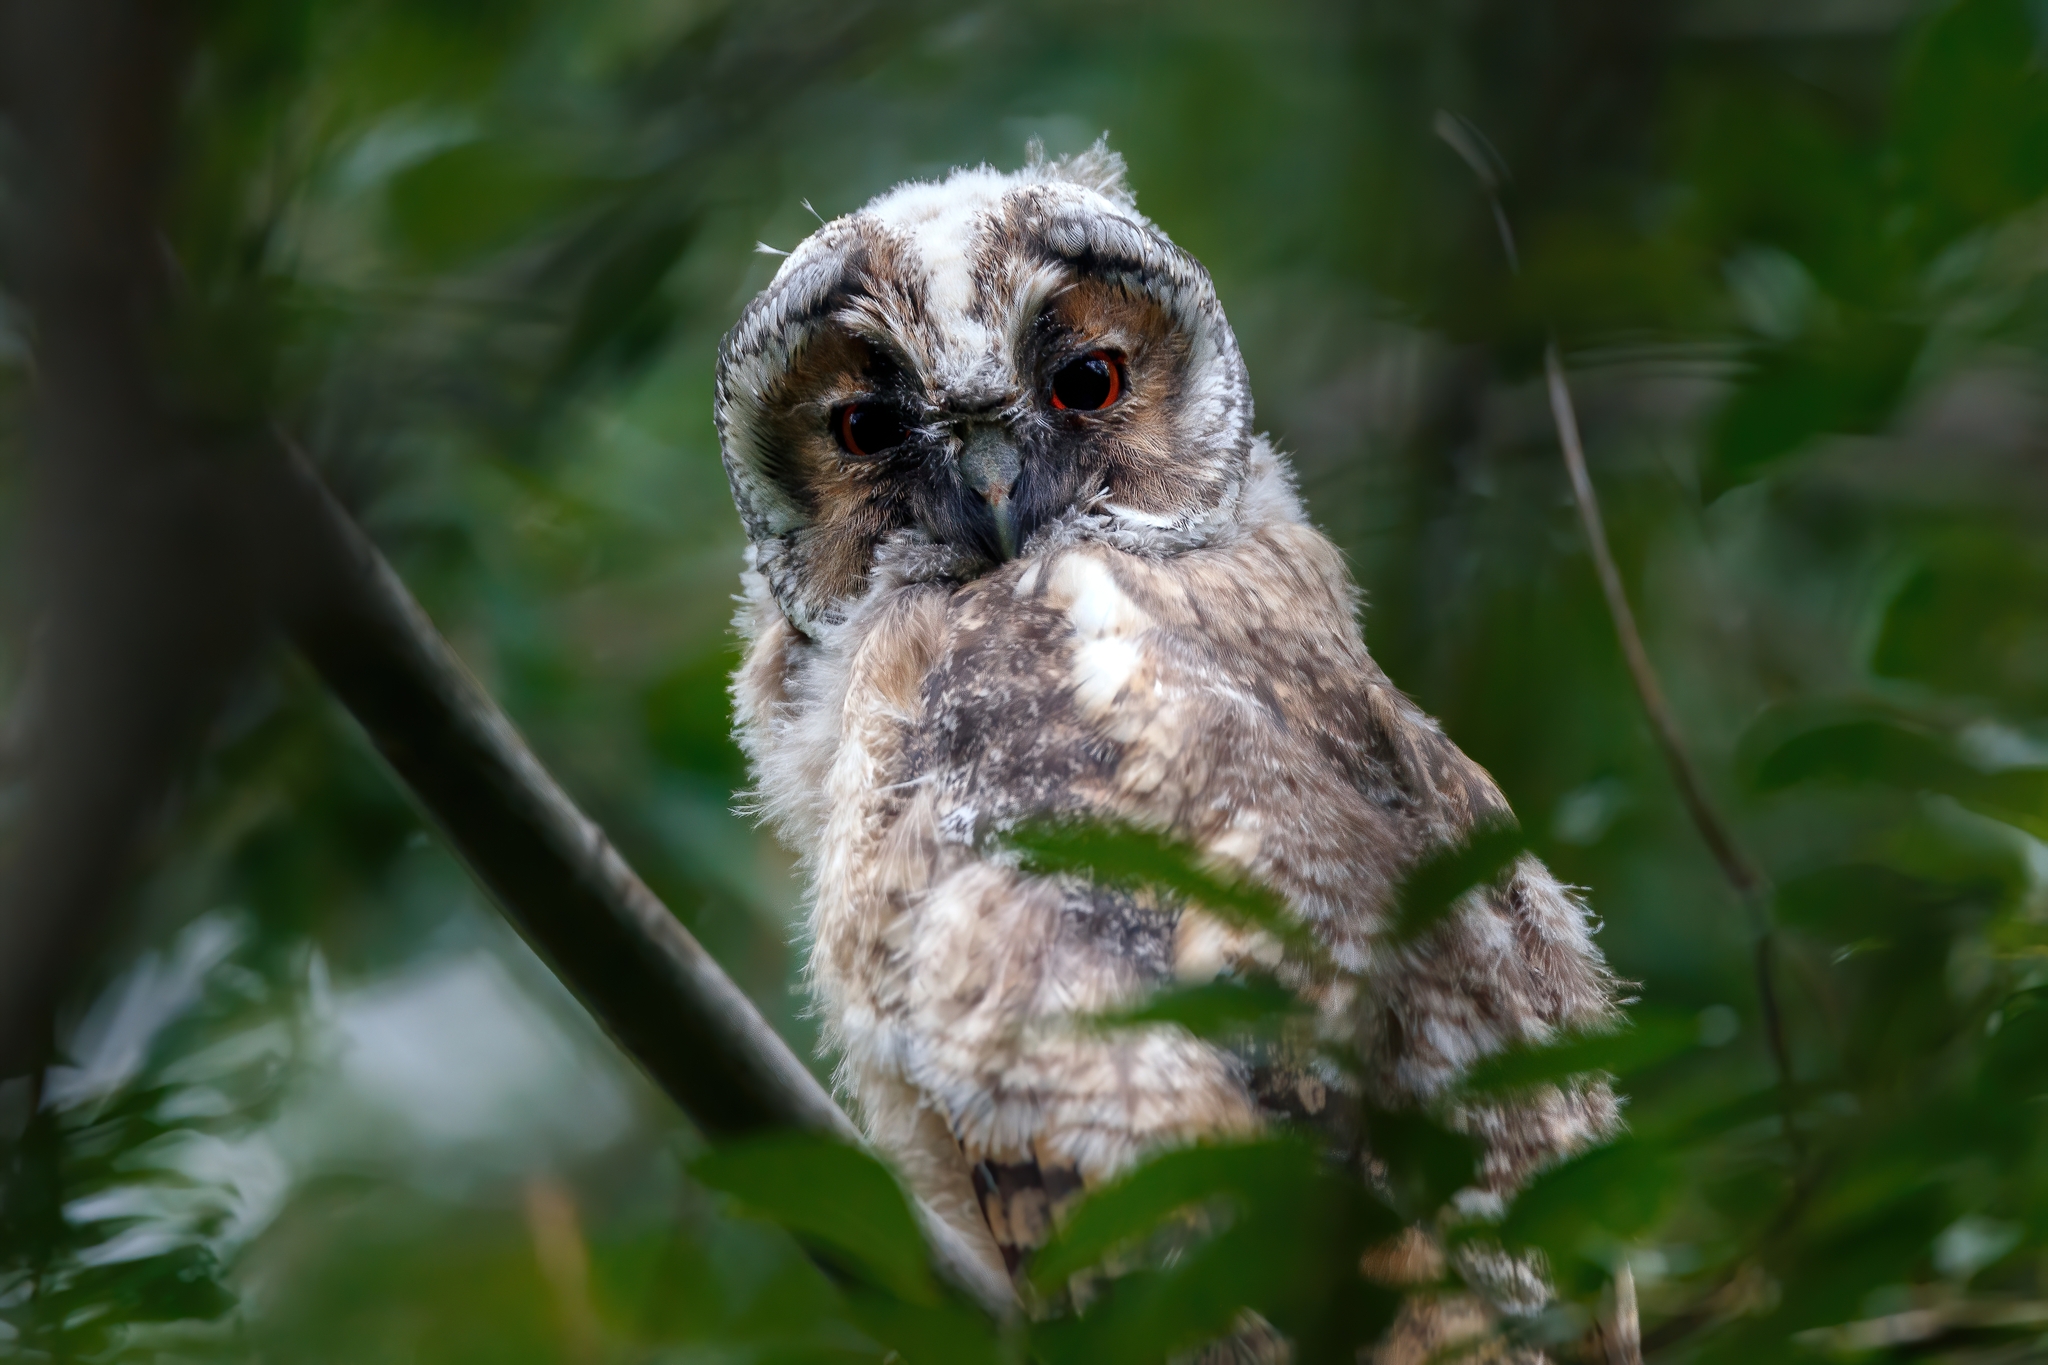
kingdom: Animalia
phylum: Chordata
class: Aves
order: Strigiformes
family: Strigidae
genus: Asio
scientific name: Asio otus
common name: Long-eared owl
